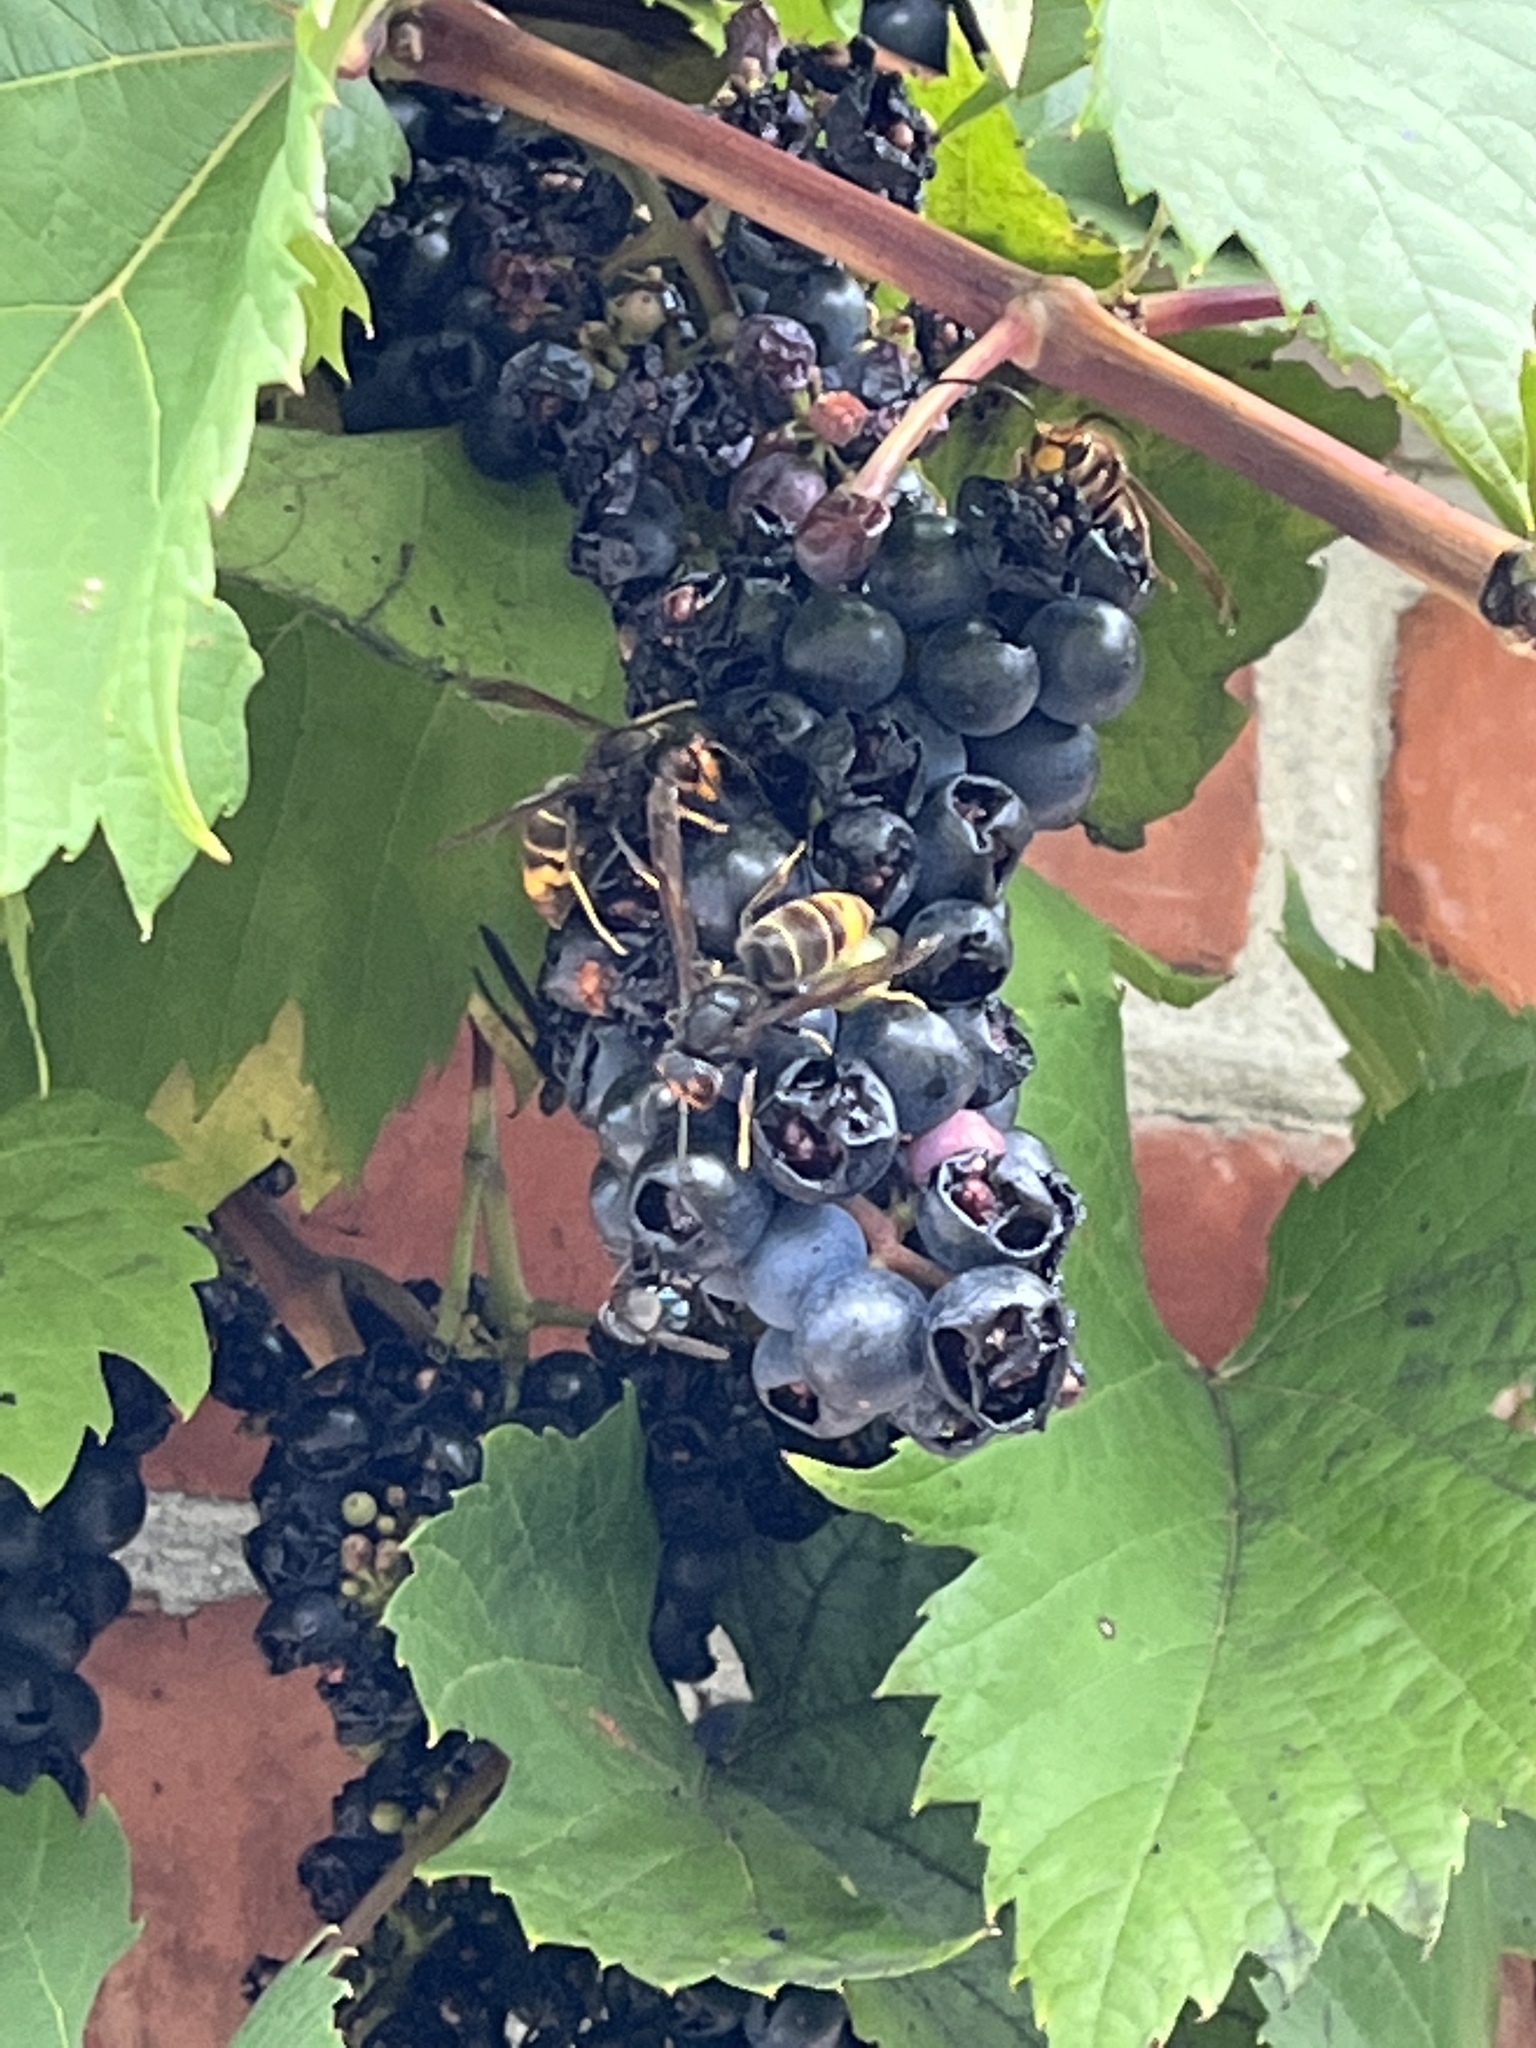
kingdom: Animalia
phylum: Arthropoda
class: Insecta
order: Hymenoptera
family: Vespidae
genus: Vespa
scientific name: Vespa velutina
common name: Asian hornet
